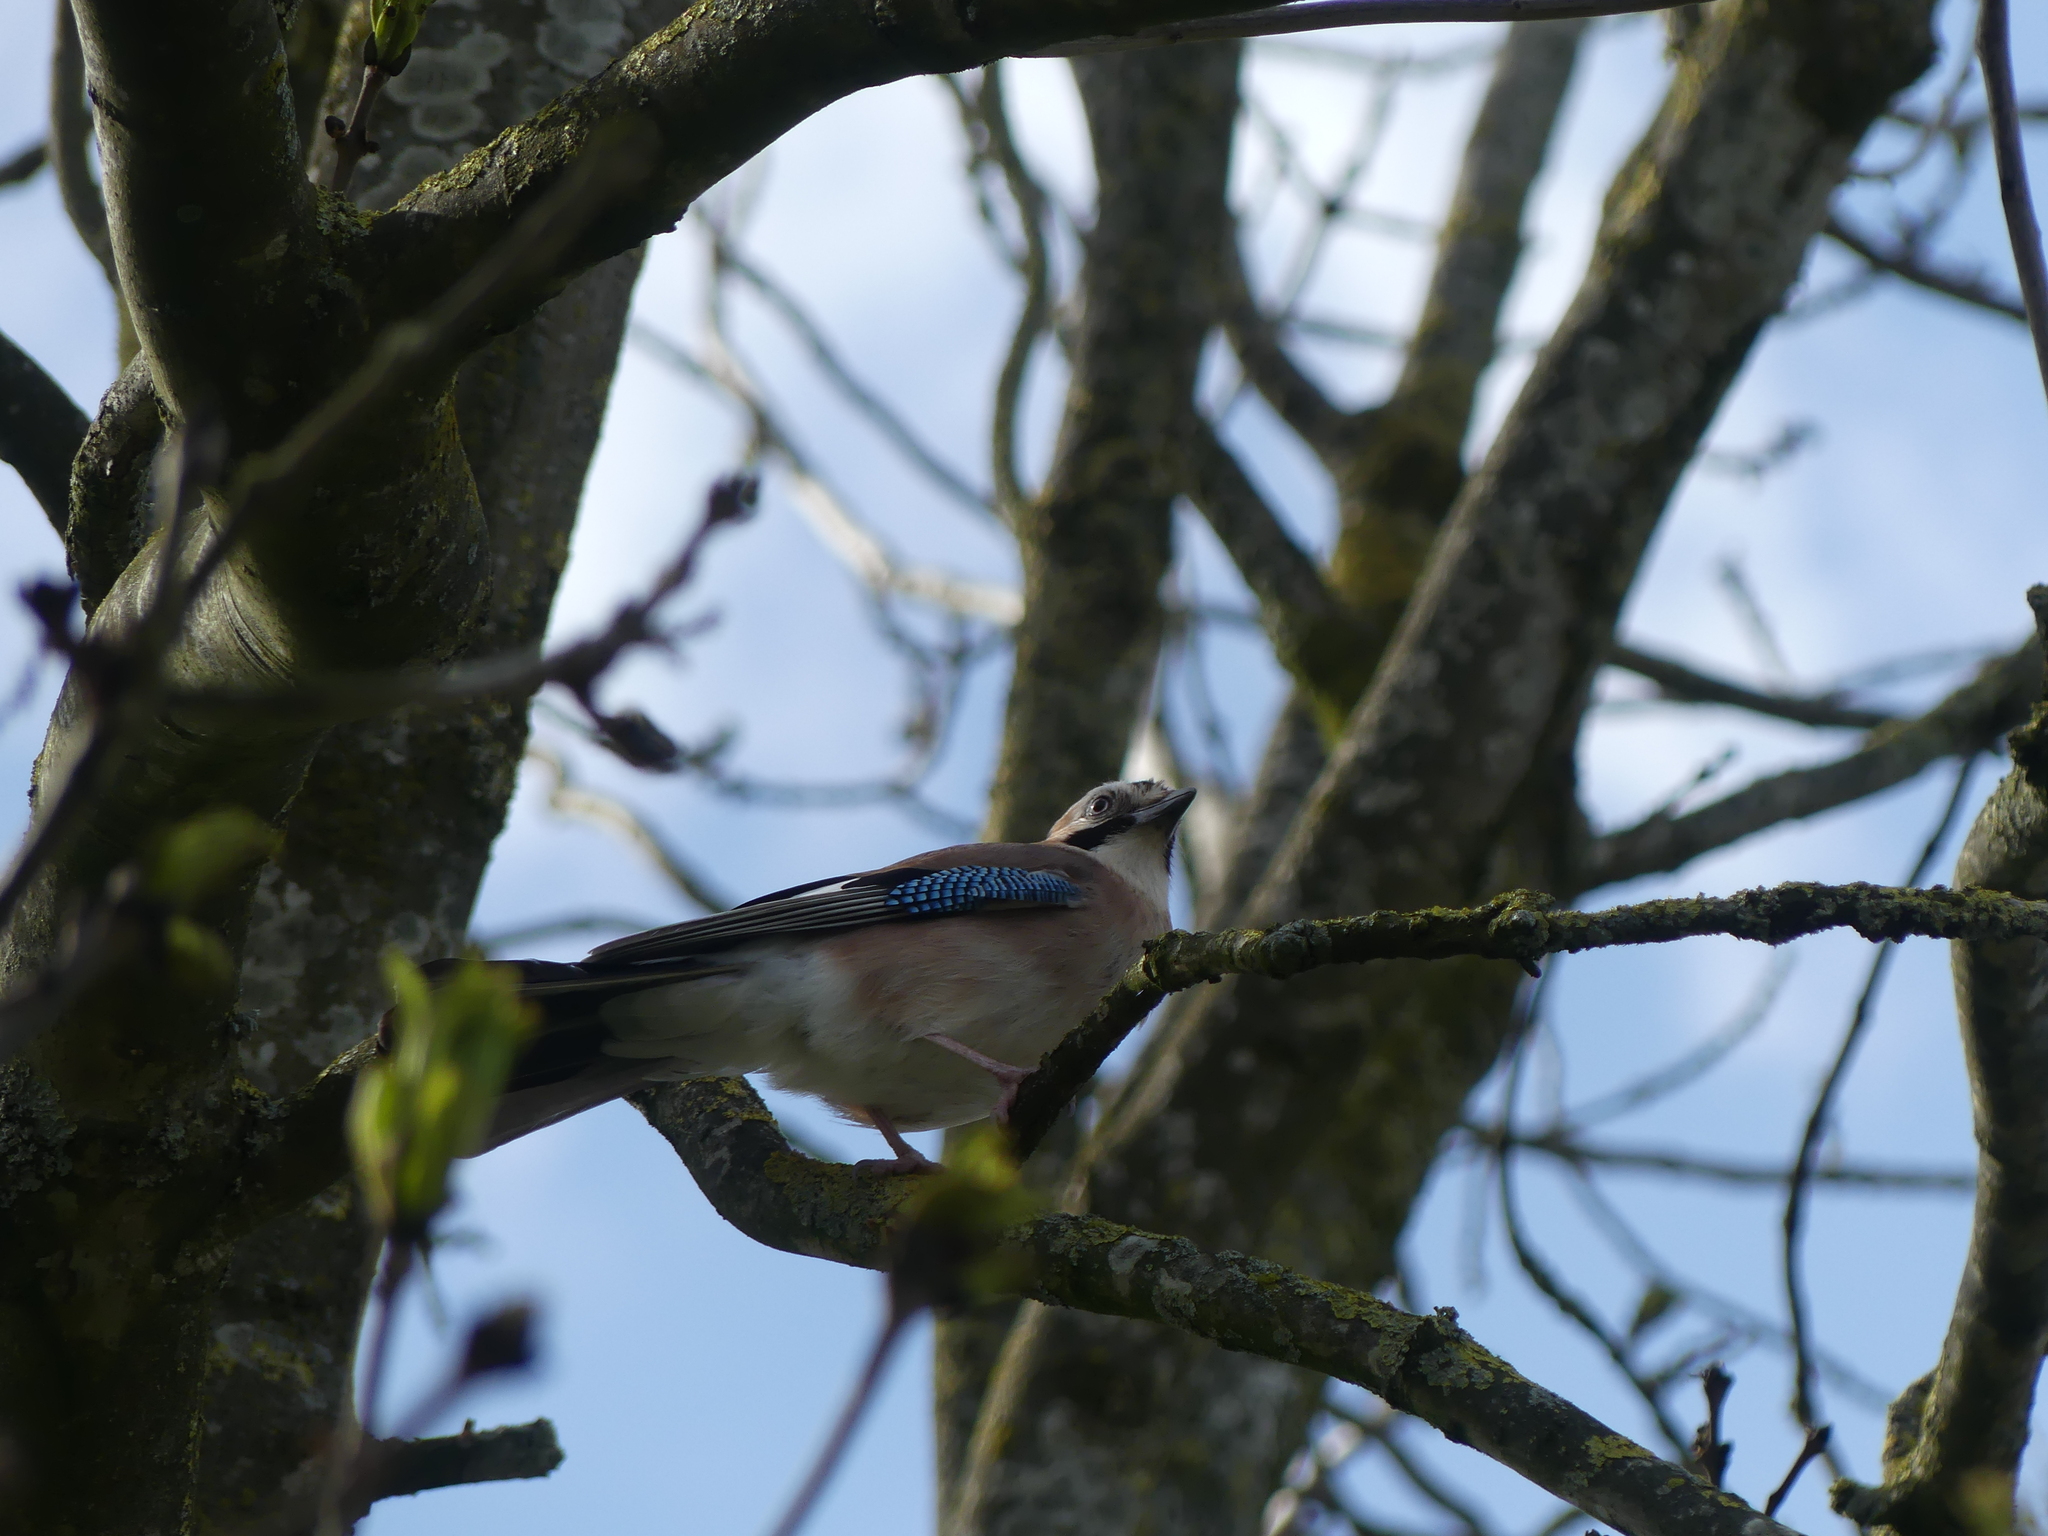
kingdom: Animalia
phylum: Chordata
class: Aves
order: Passeriformes
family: Corvidae
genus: Garrulus
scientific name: Garrulus glandarius
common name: Eurasian jay
